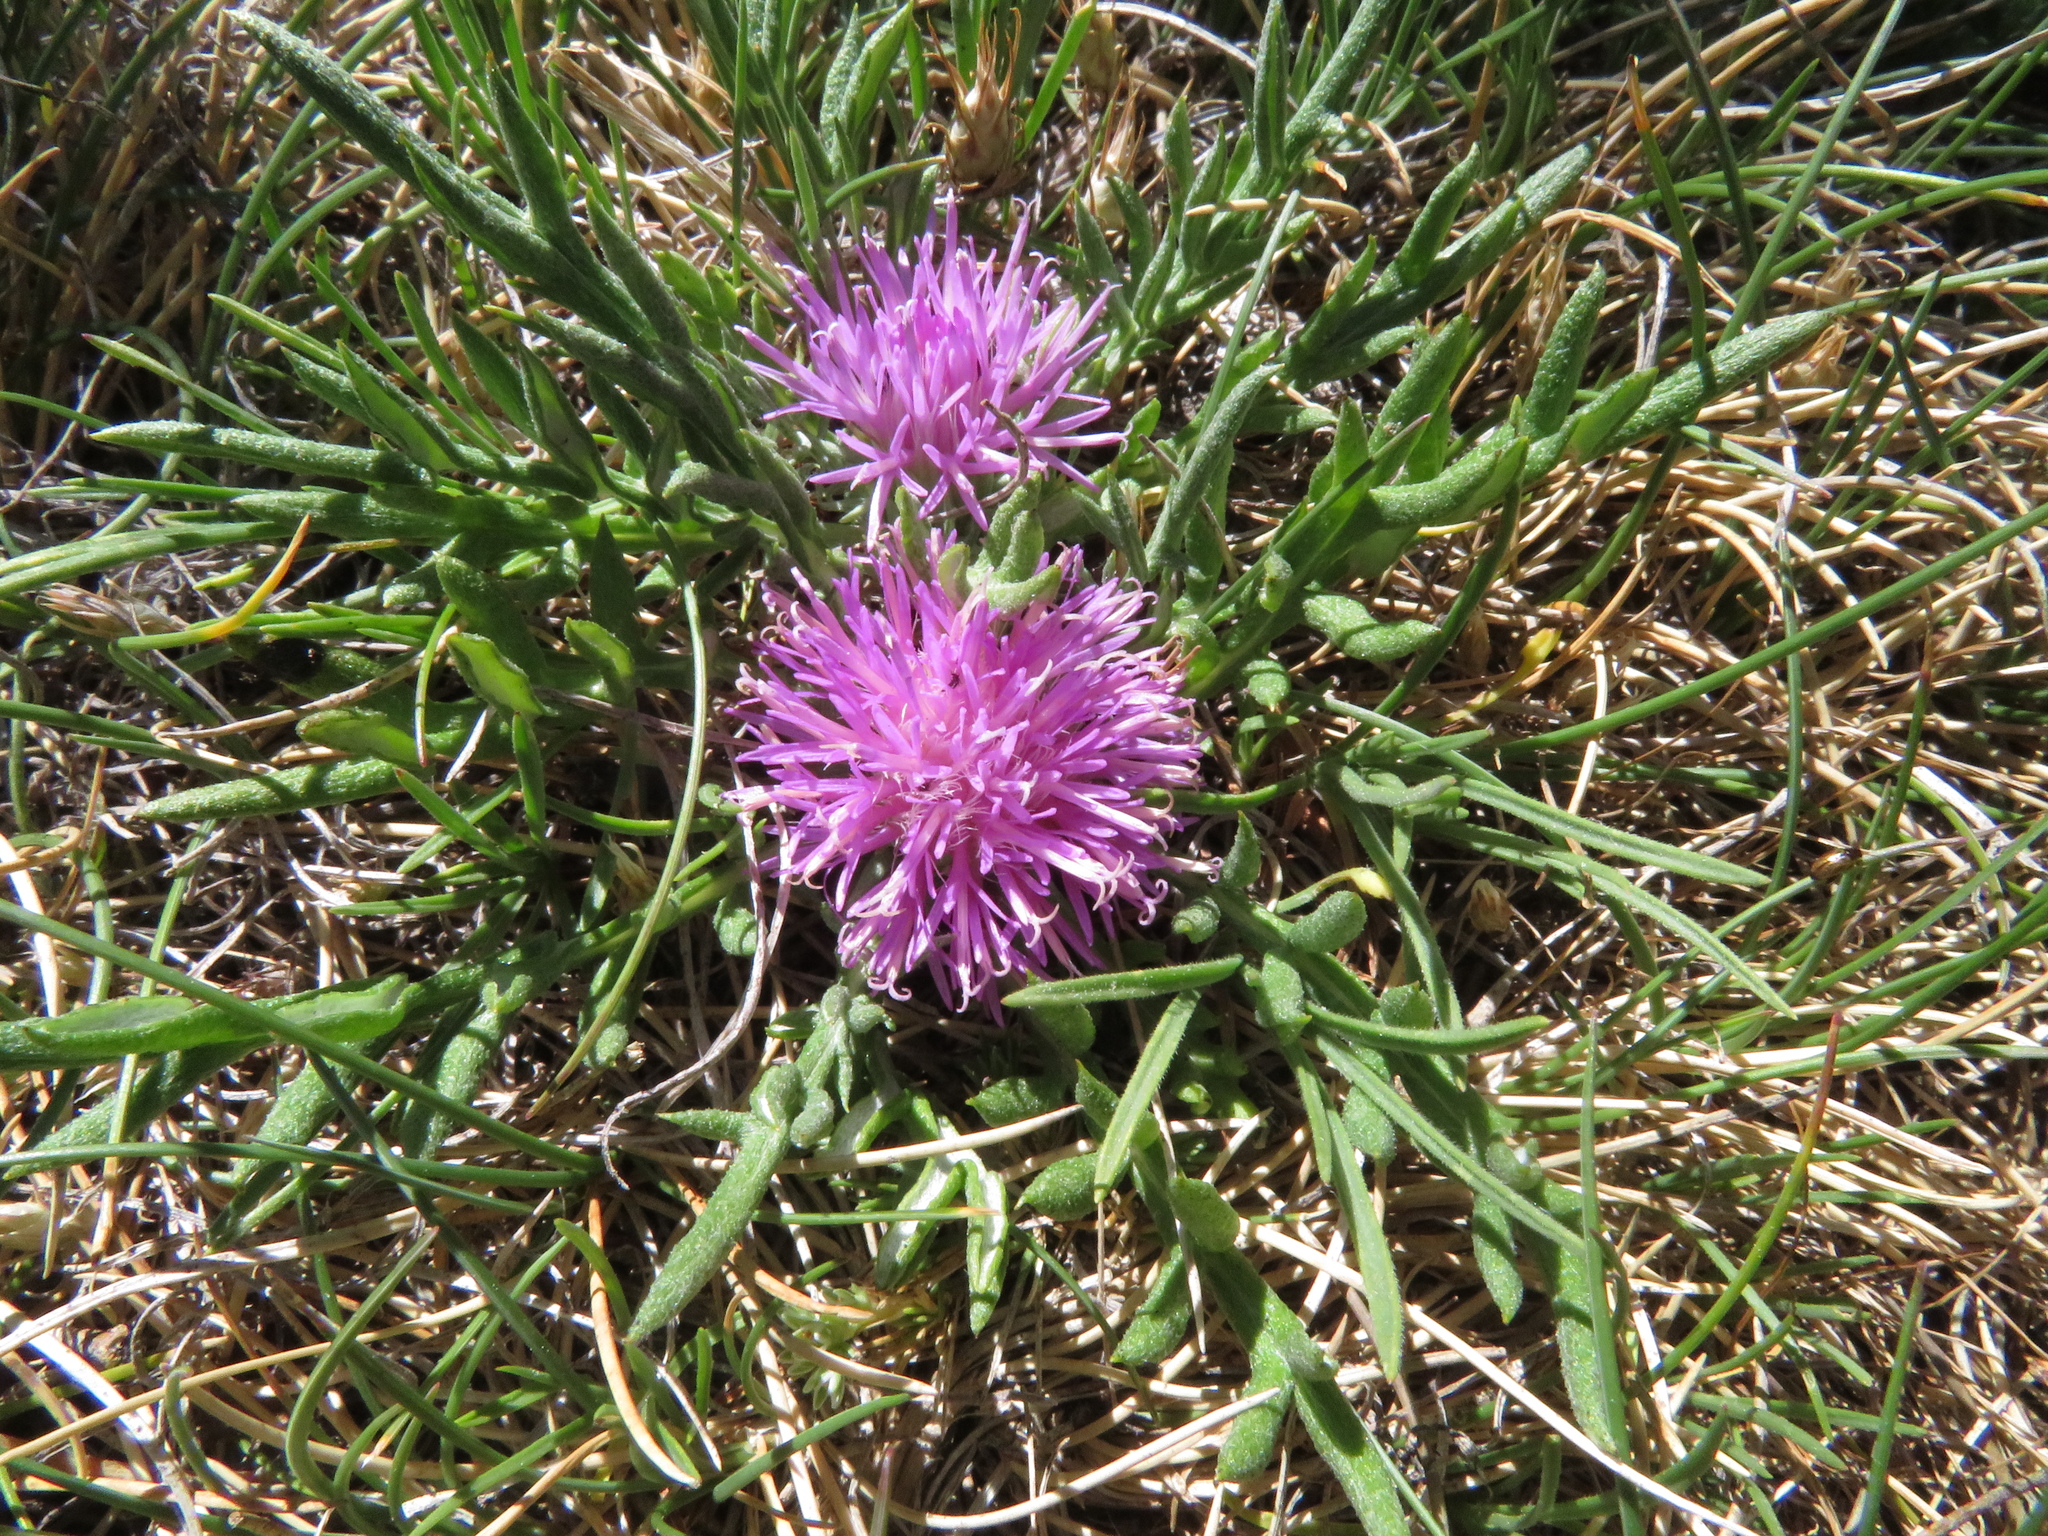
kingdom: Plantae
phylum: Tracheophyta
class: Magnoliopsida
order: Asterales
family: Asteraceae
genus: Jurinea
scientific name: Jurinea humilis
